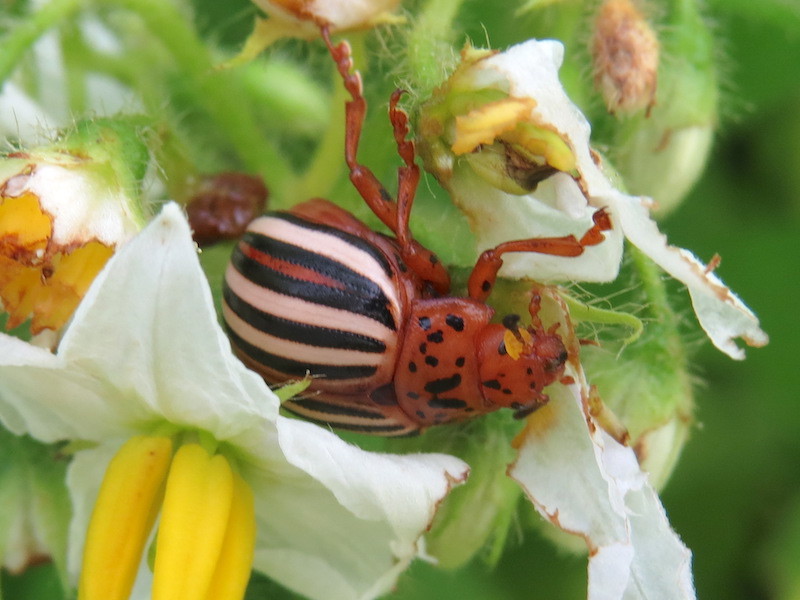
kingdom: Animalia
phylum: Arthropoda
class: Insecta
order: Coleoptera
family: Chrysomelidae
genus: Leptinotarsa
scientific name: Leptinotarsa juncta
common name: False potato beetle
